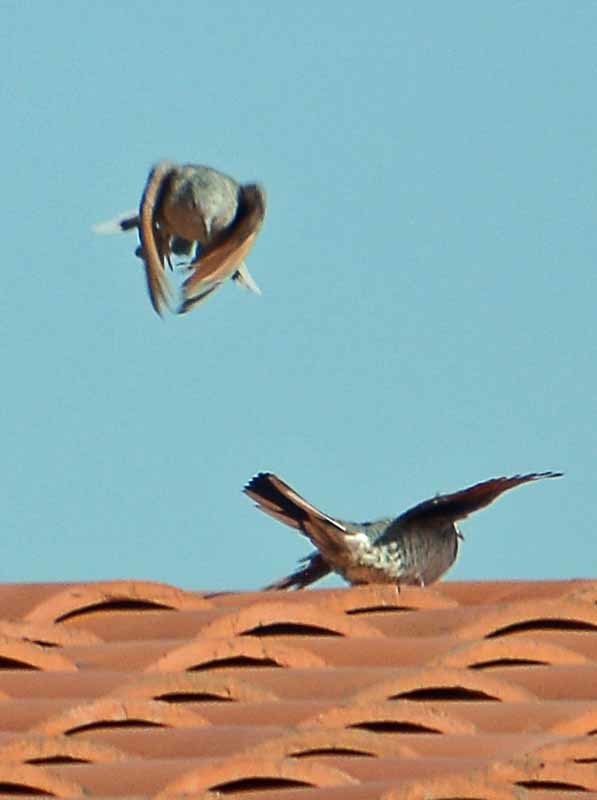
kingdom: Animalia
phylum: Chordata
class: Aves
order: Columbiformes
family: Columbidae
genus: Columbina
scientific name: Columbina inca
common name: Inca dove
